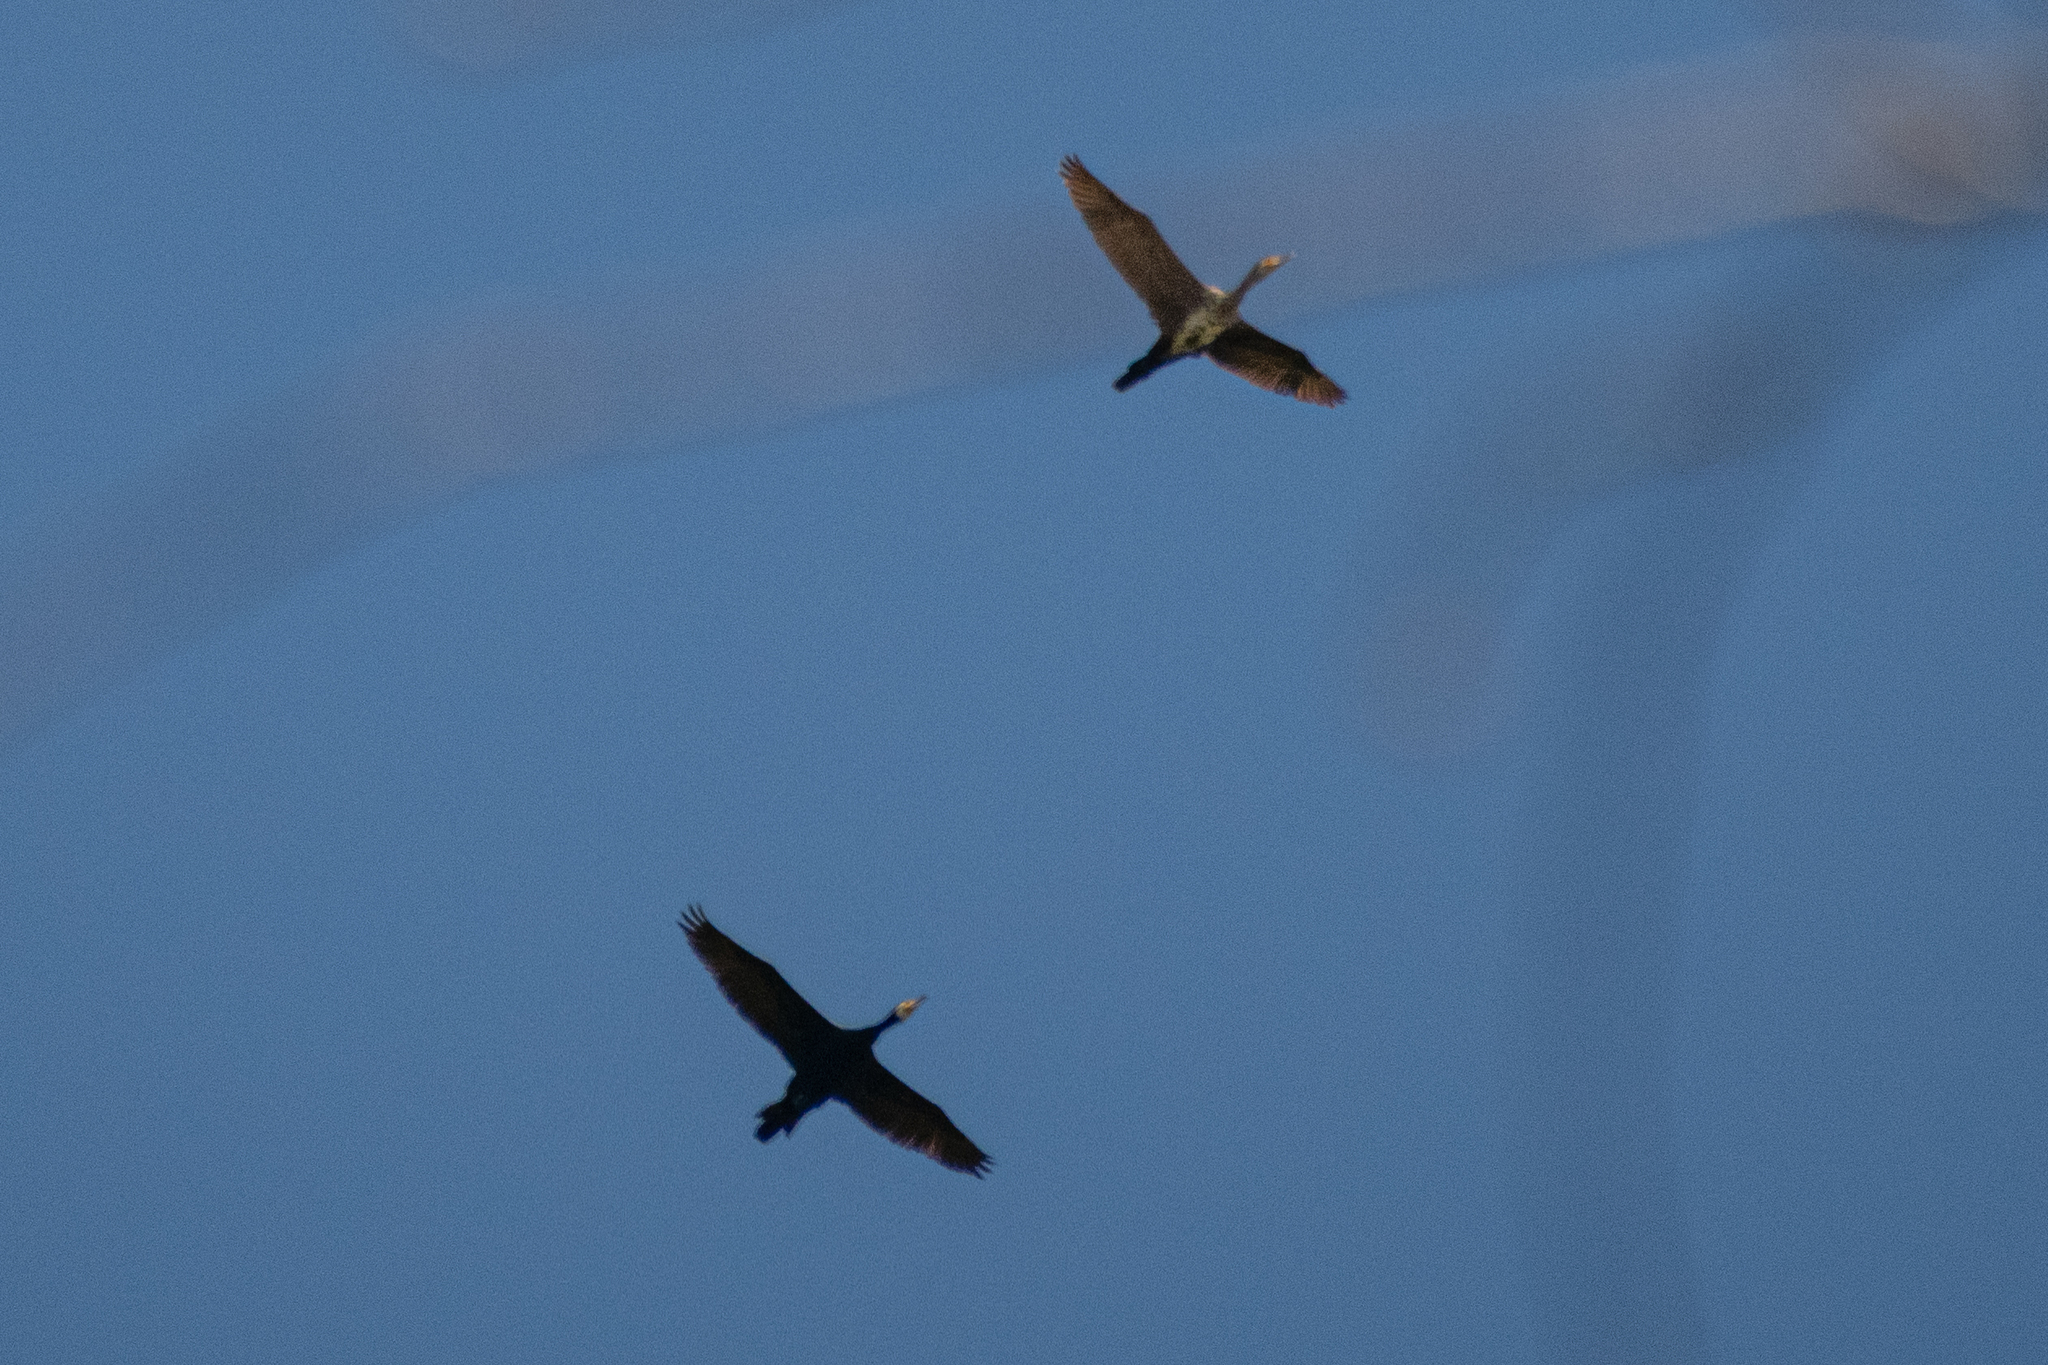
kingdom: Animalia
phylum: Chordata
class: Aves
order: Suliformes
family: Phalacrocoracidae
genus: Phalacrocorax
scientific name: Phalacrocorax carbo
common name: Great cormorant
